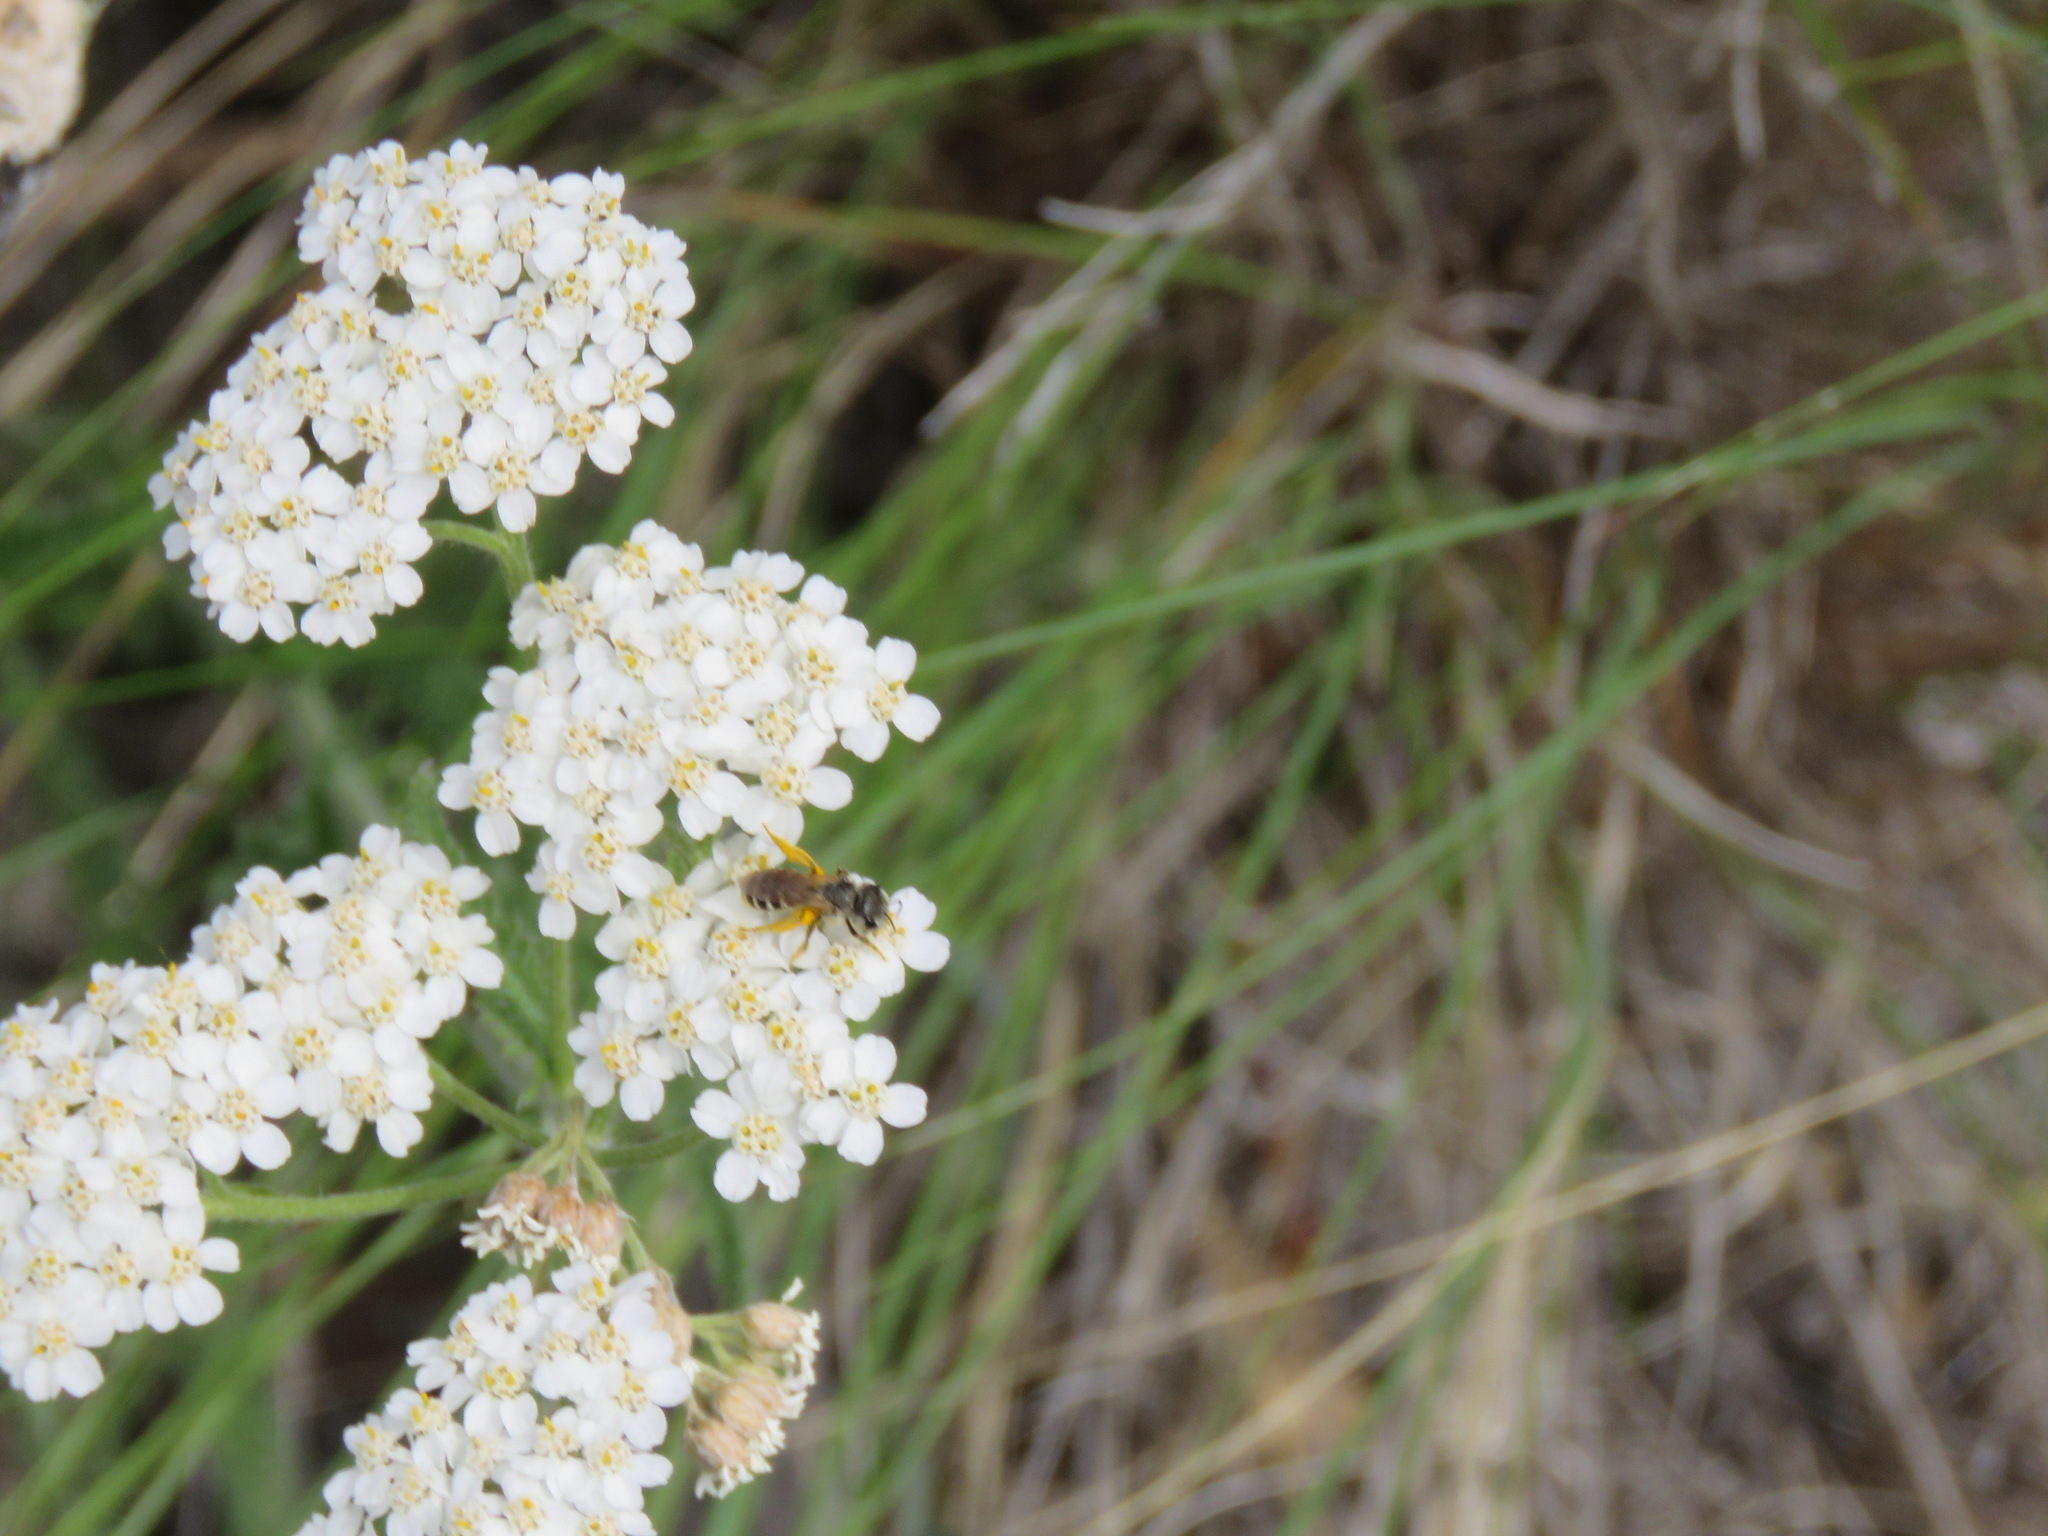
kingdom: Animalia
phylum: Arthropoda
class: Insecta
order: Hymenoptera
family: Halictidae
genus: Halictus
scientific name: Halictus ligatus
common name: Ligated furrow bee
